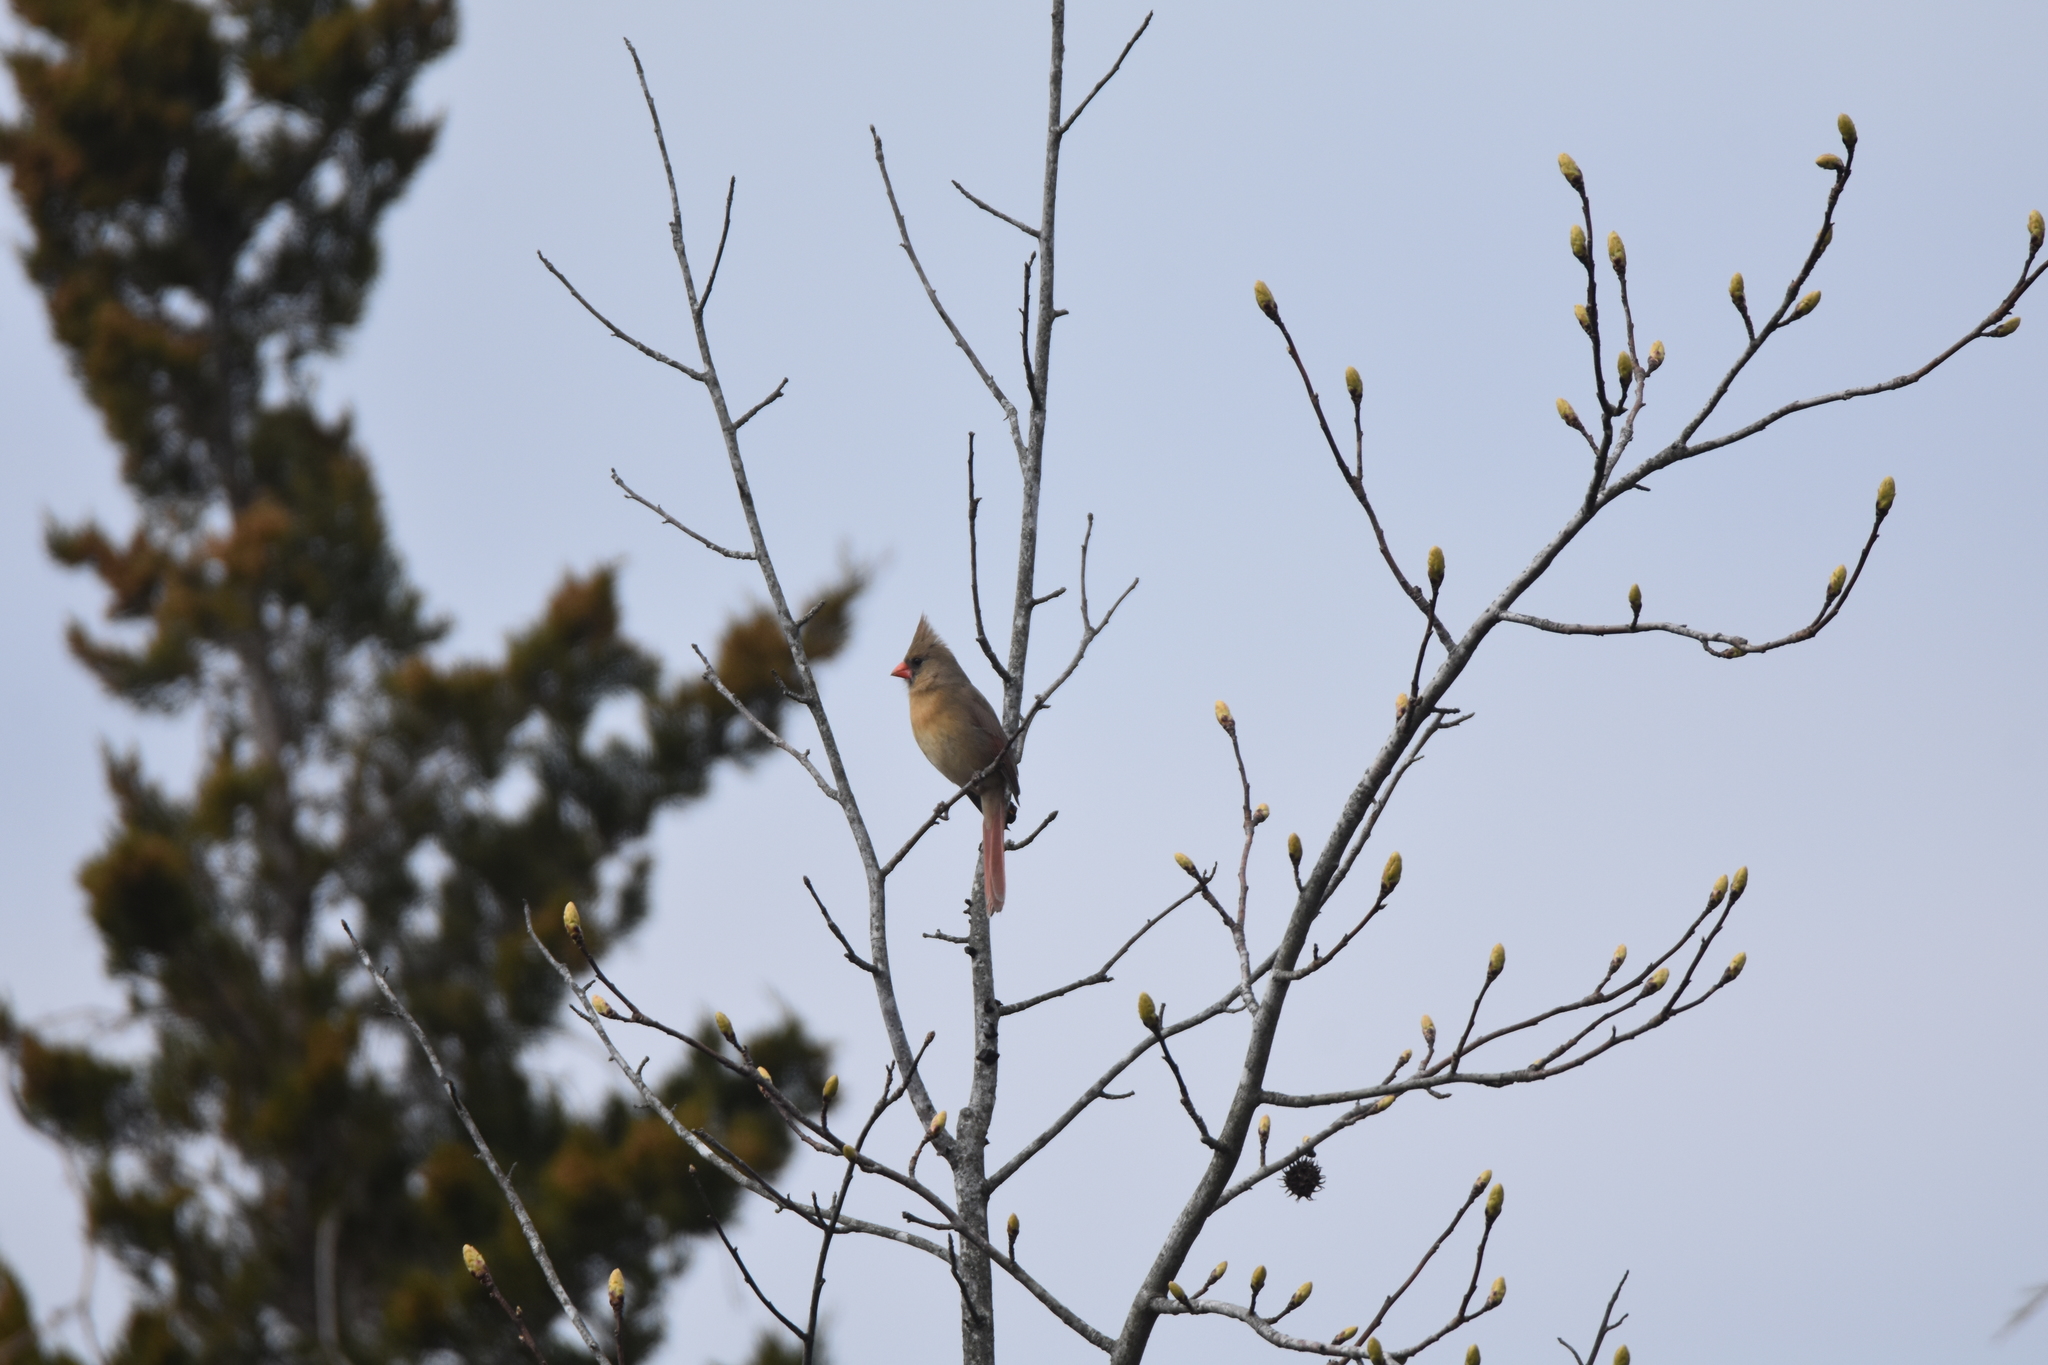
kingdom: Animalia
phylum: Chordata
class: Aves
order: Passeriformes
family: Cardinalidae
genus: Cardinalis
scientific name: Cardinalis cardinalis
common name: Northern cardinal
